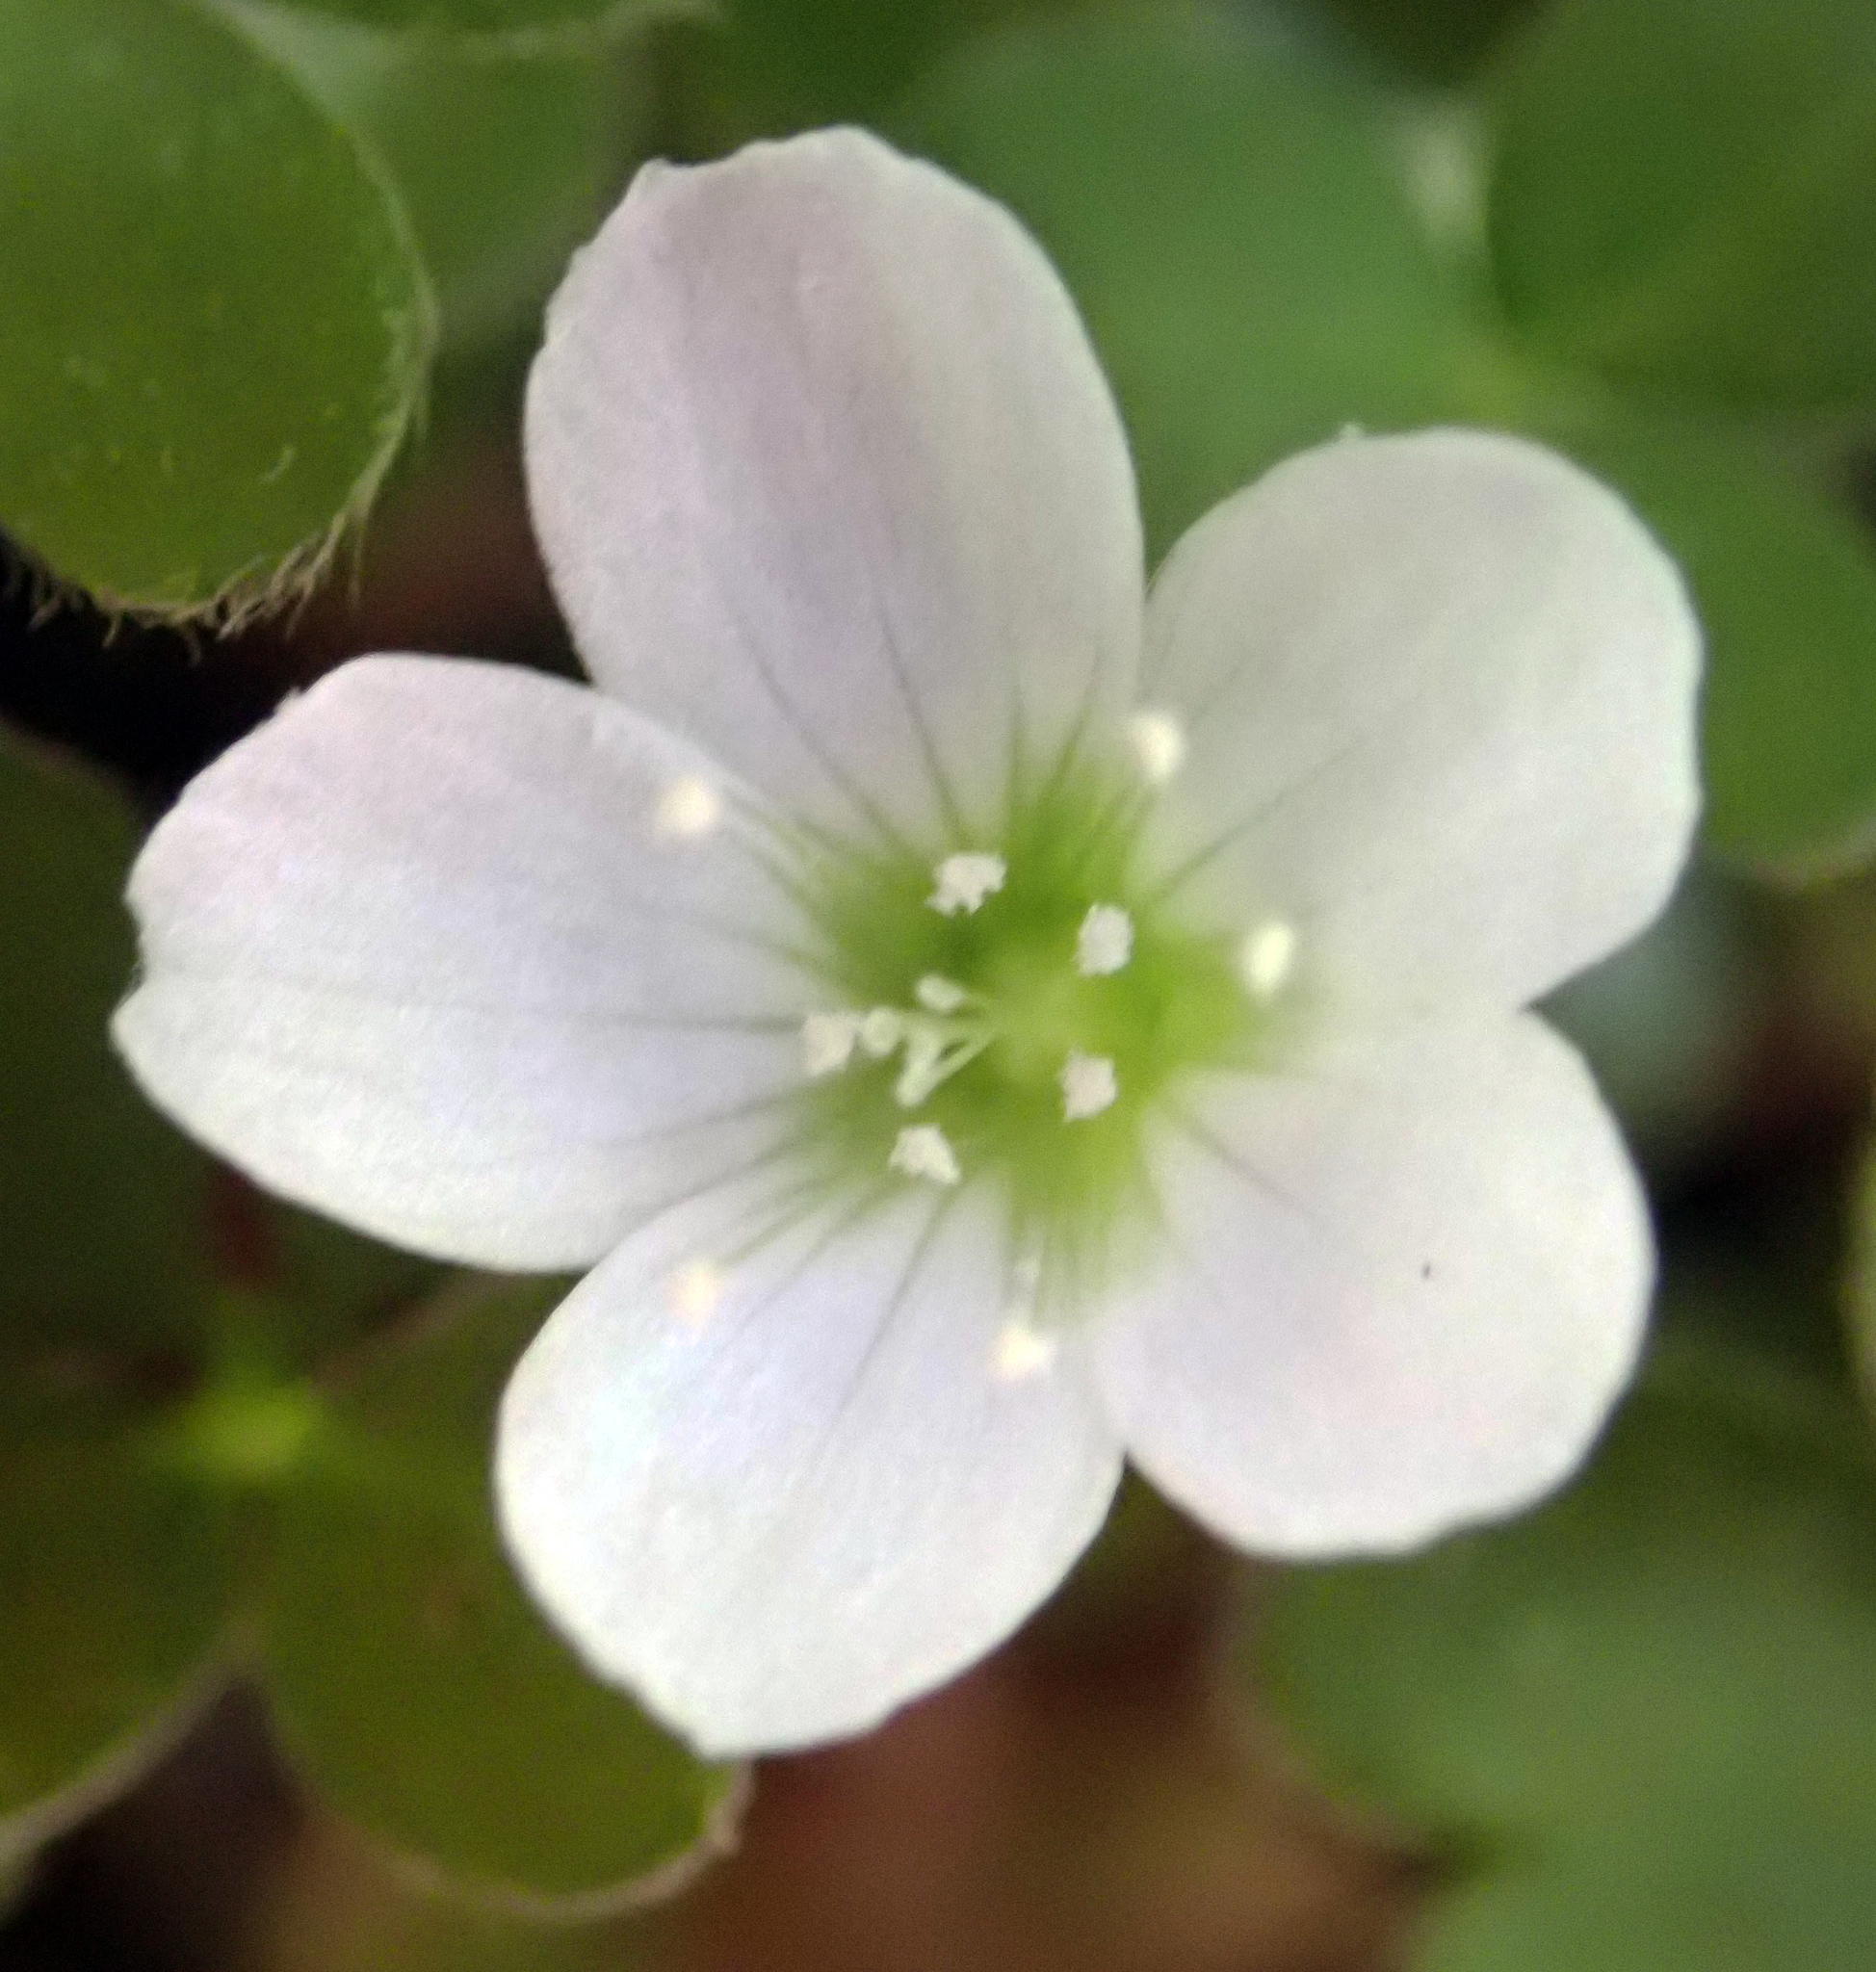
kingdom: Plantae
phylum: Tracheophyta
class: Magnoliopsida
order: Oxalidales
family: Oxalidaceae
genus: Oxalis
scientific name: Oxalis magellanica
